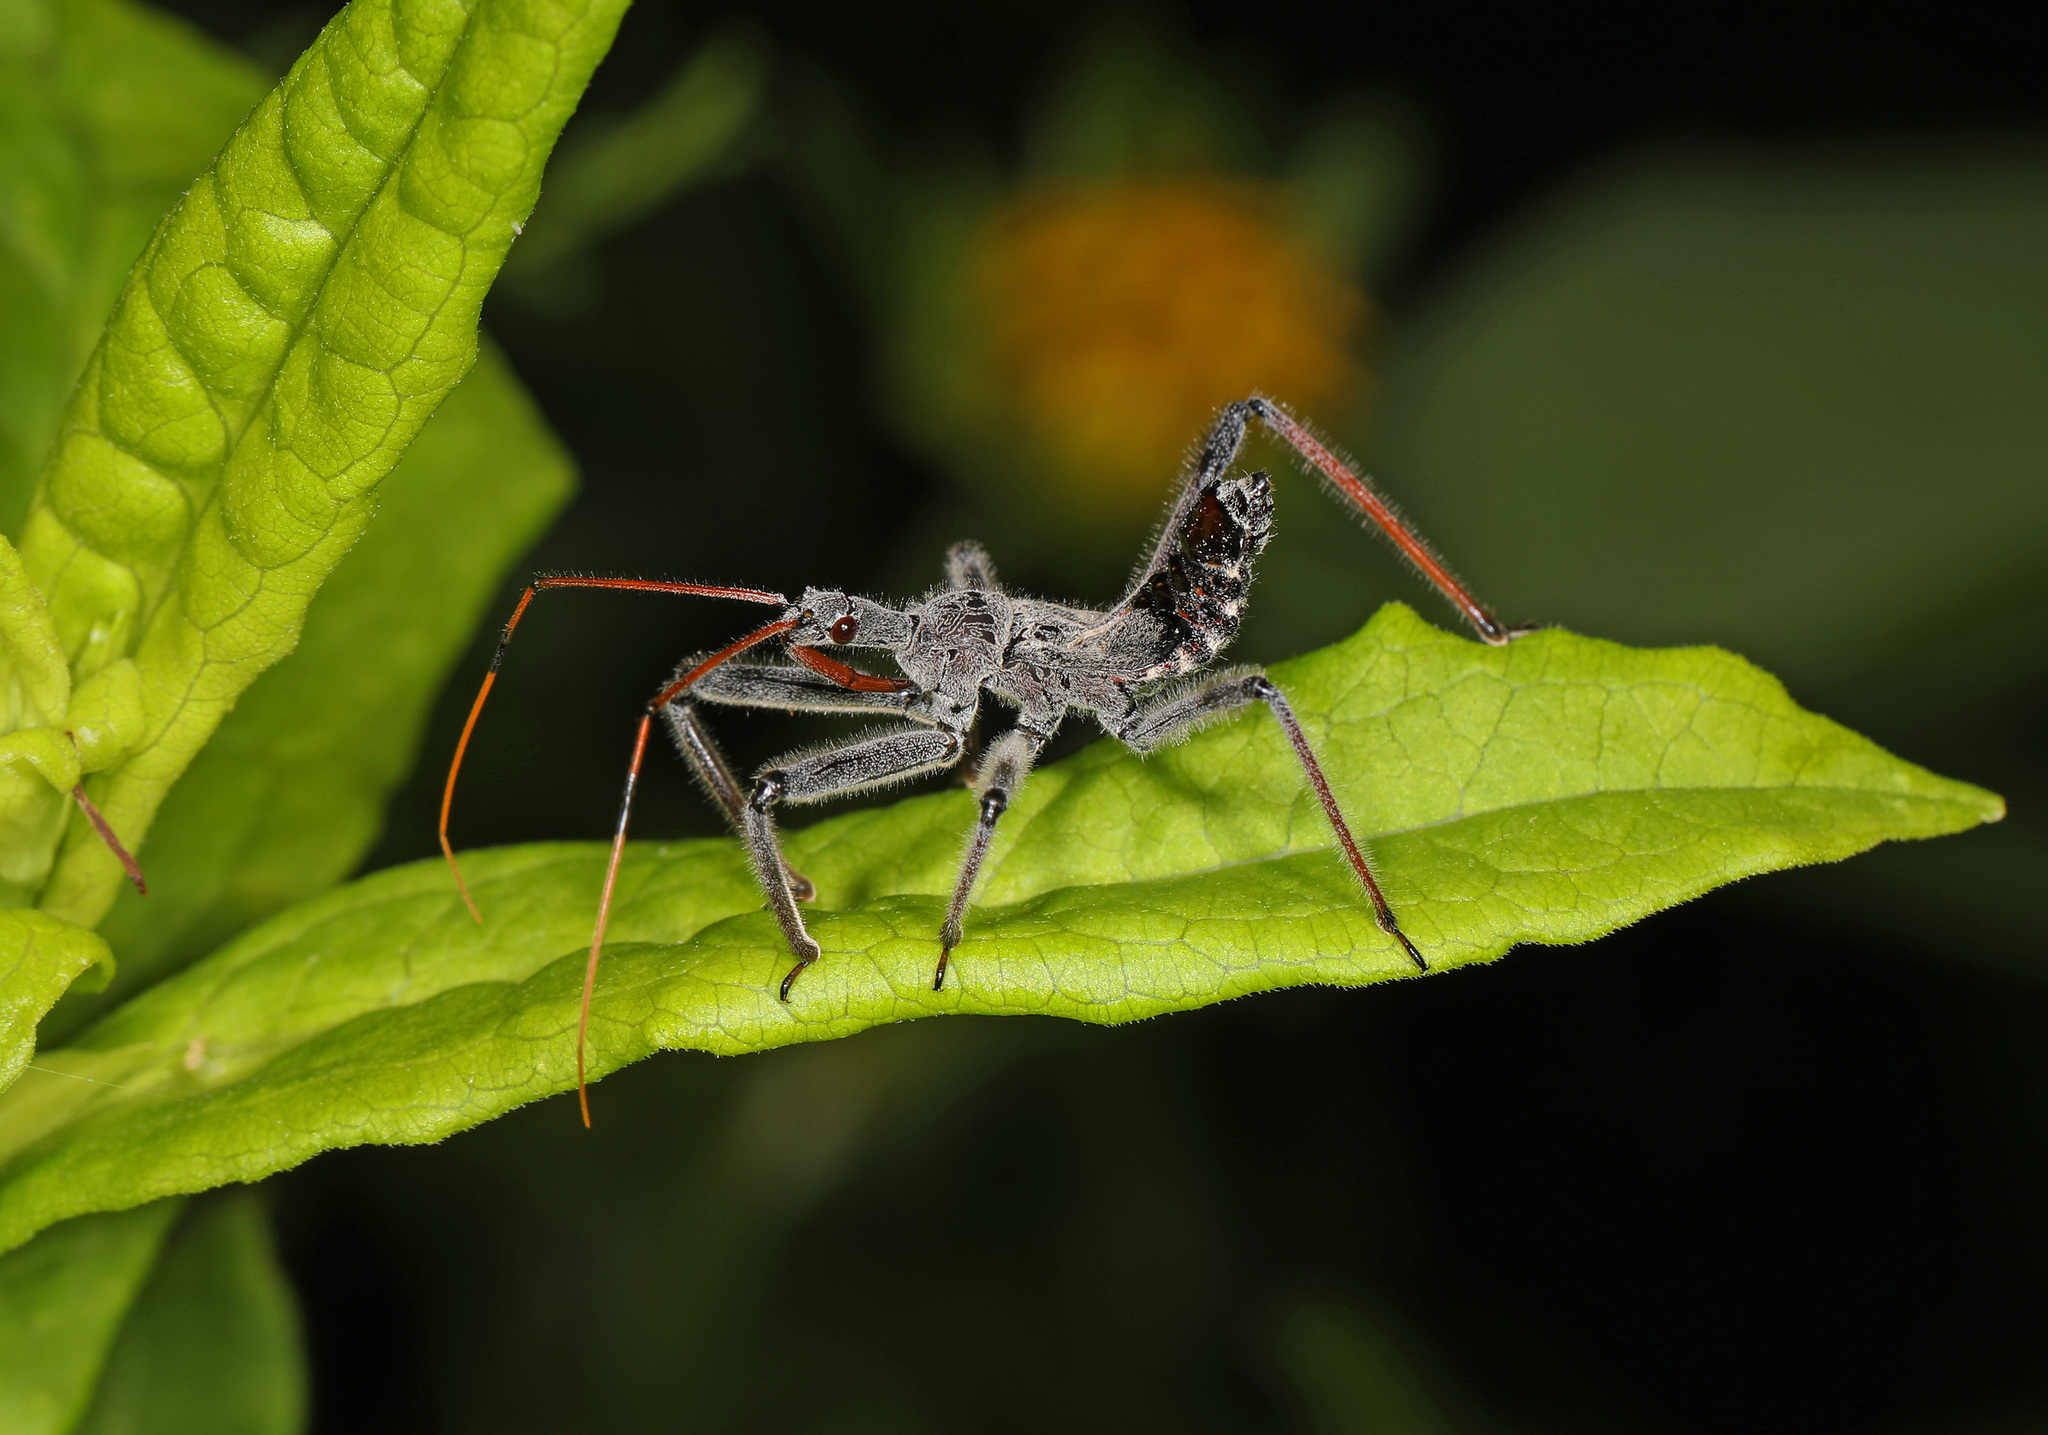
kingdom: Animalia
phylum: Arthropoda
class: Insecta
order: Hemiptera
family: Reduviidae
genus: Arilus
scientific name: Arilus cristatus
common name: North american wheel bug
